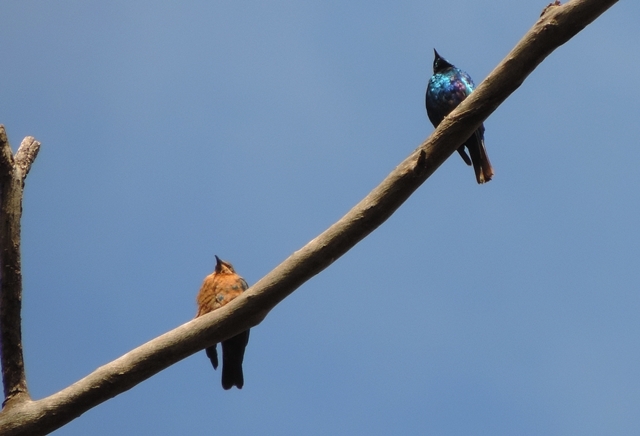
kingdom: Animalia
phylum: Chordata
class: Aves
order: Passeriformes
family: Sturnidae
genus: Lamprotornis
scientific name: Lamprotornis chloropterus
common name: Lesser blue-eared starling
